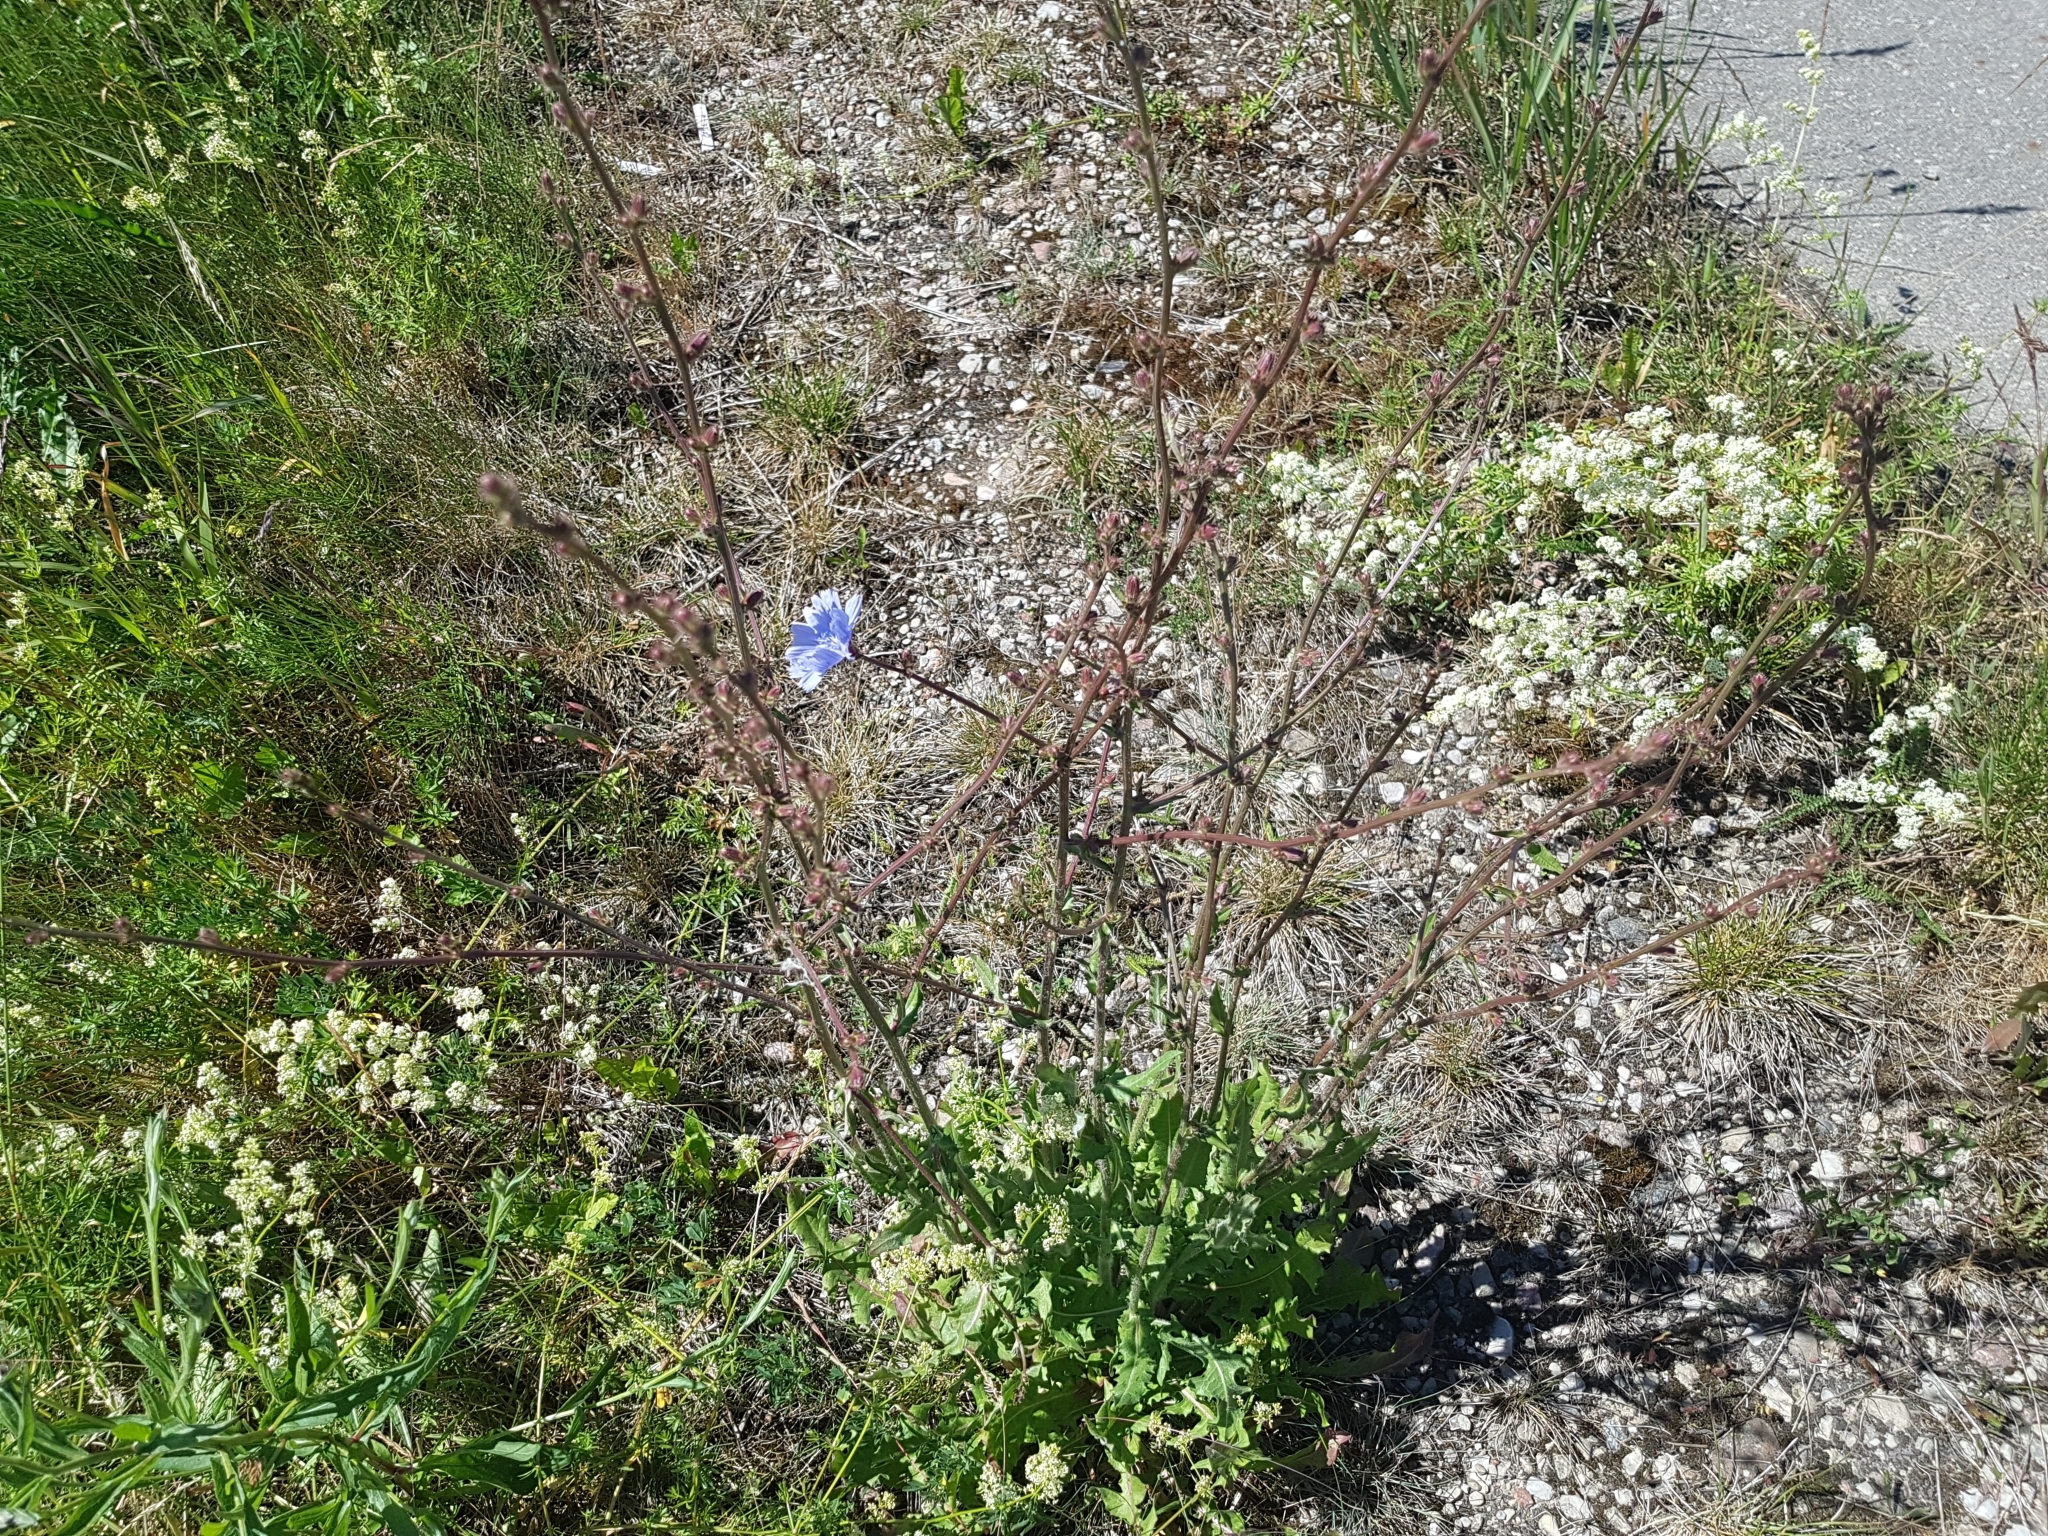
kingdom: Plantae
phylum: Tracheophyta
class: Magnoliopsida
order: Asterales
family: Asteraceae
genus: Cichorium
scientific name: Cichorium intybus
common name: Chicory
